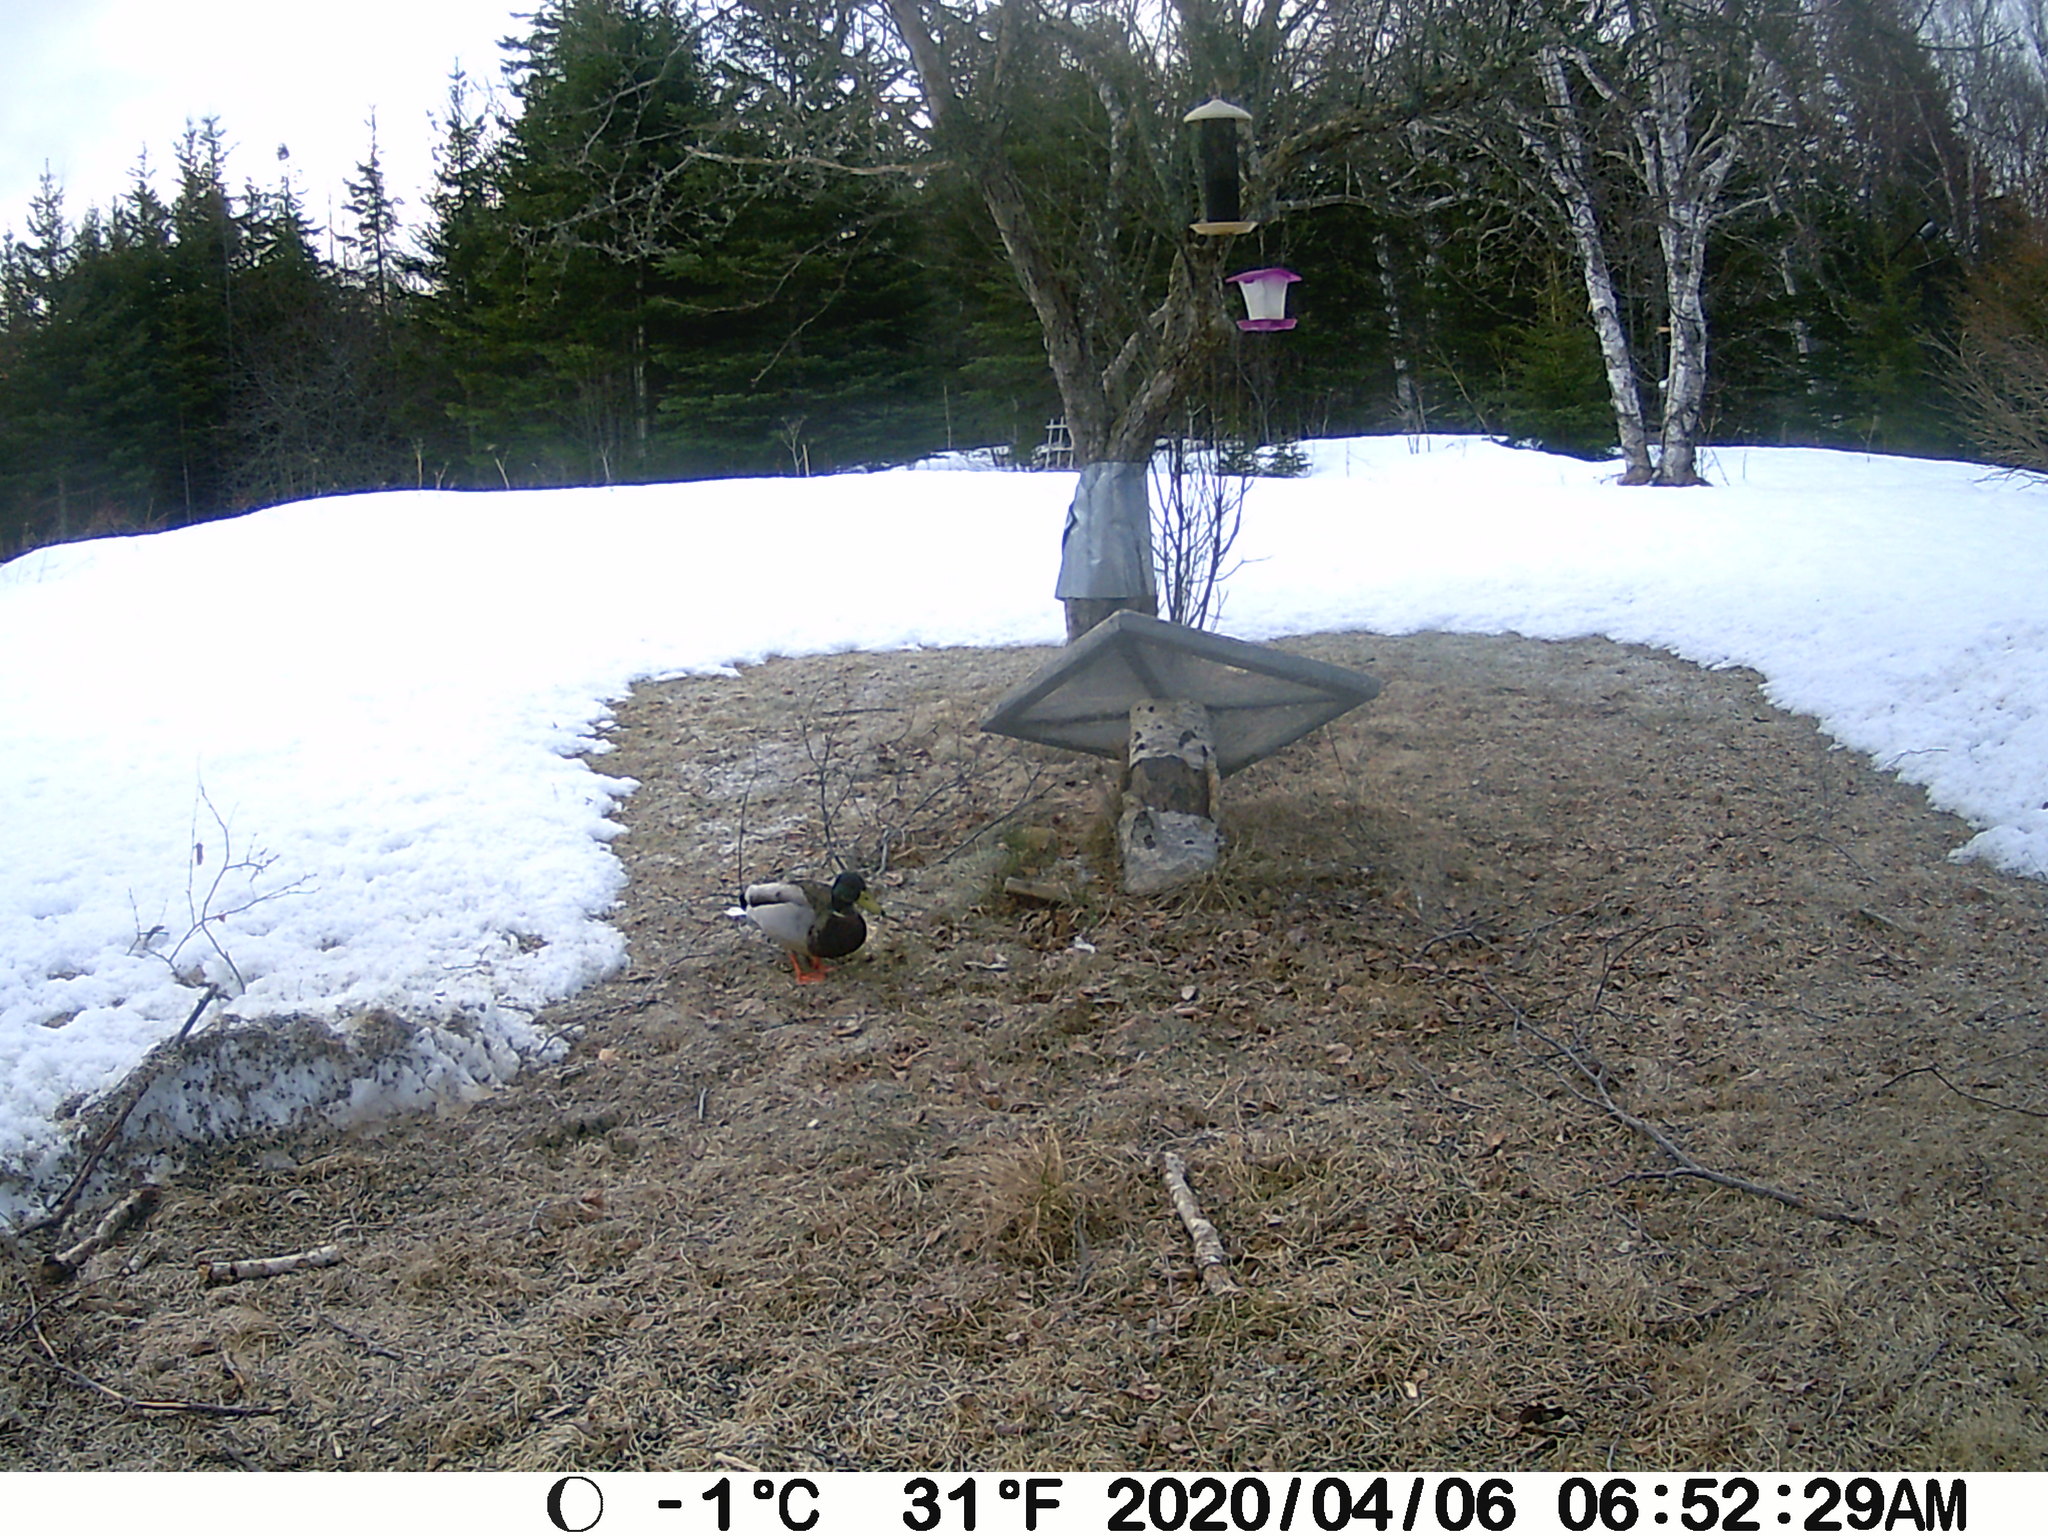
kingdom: Animalia
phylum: Chordata
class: Aves
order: Anseriformes
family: Anatidae
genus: Anas
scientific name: Anas platyrhynchos
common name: Mallard
